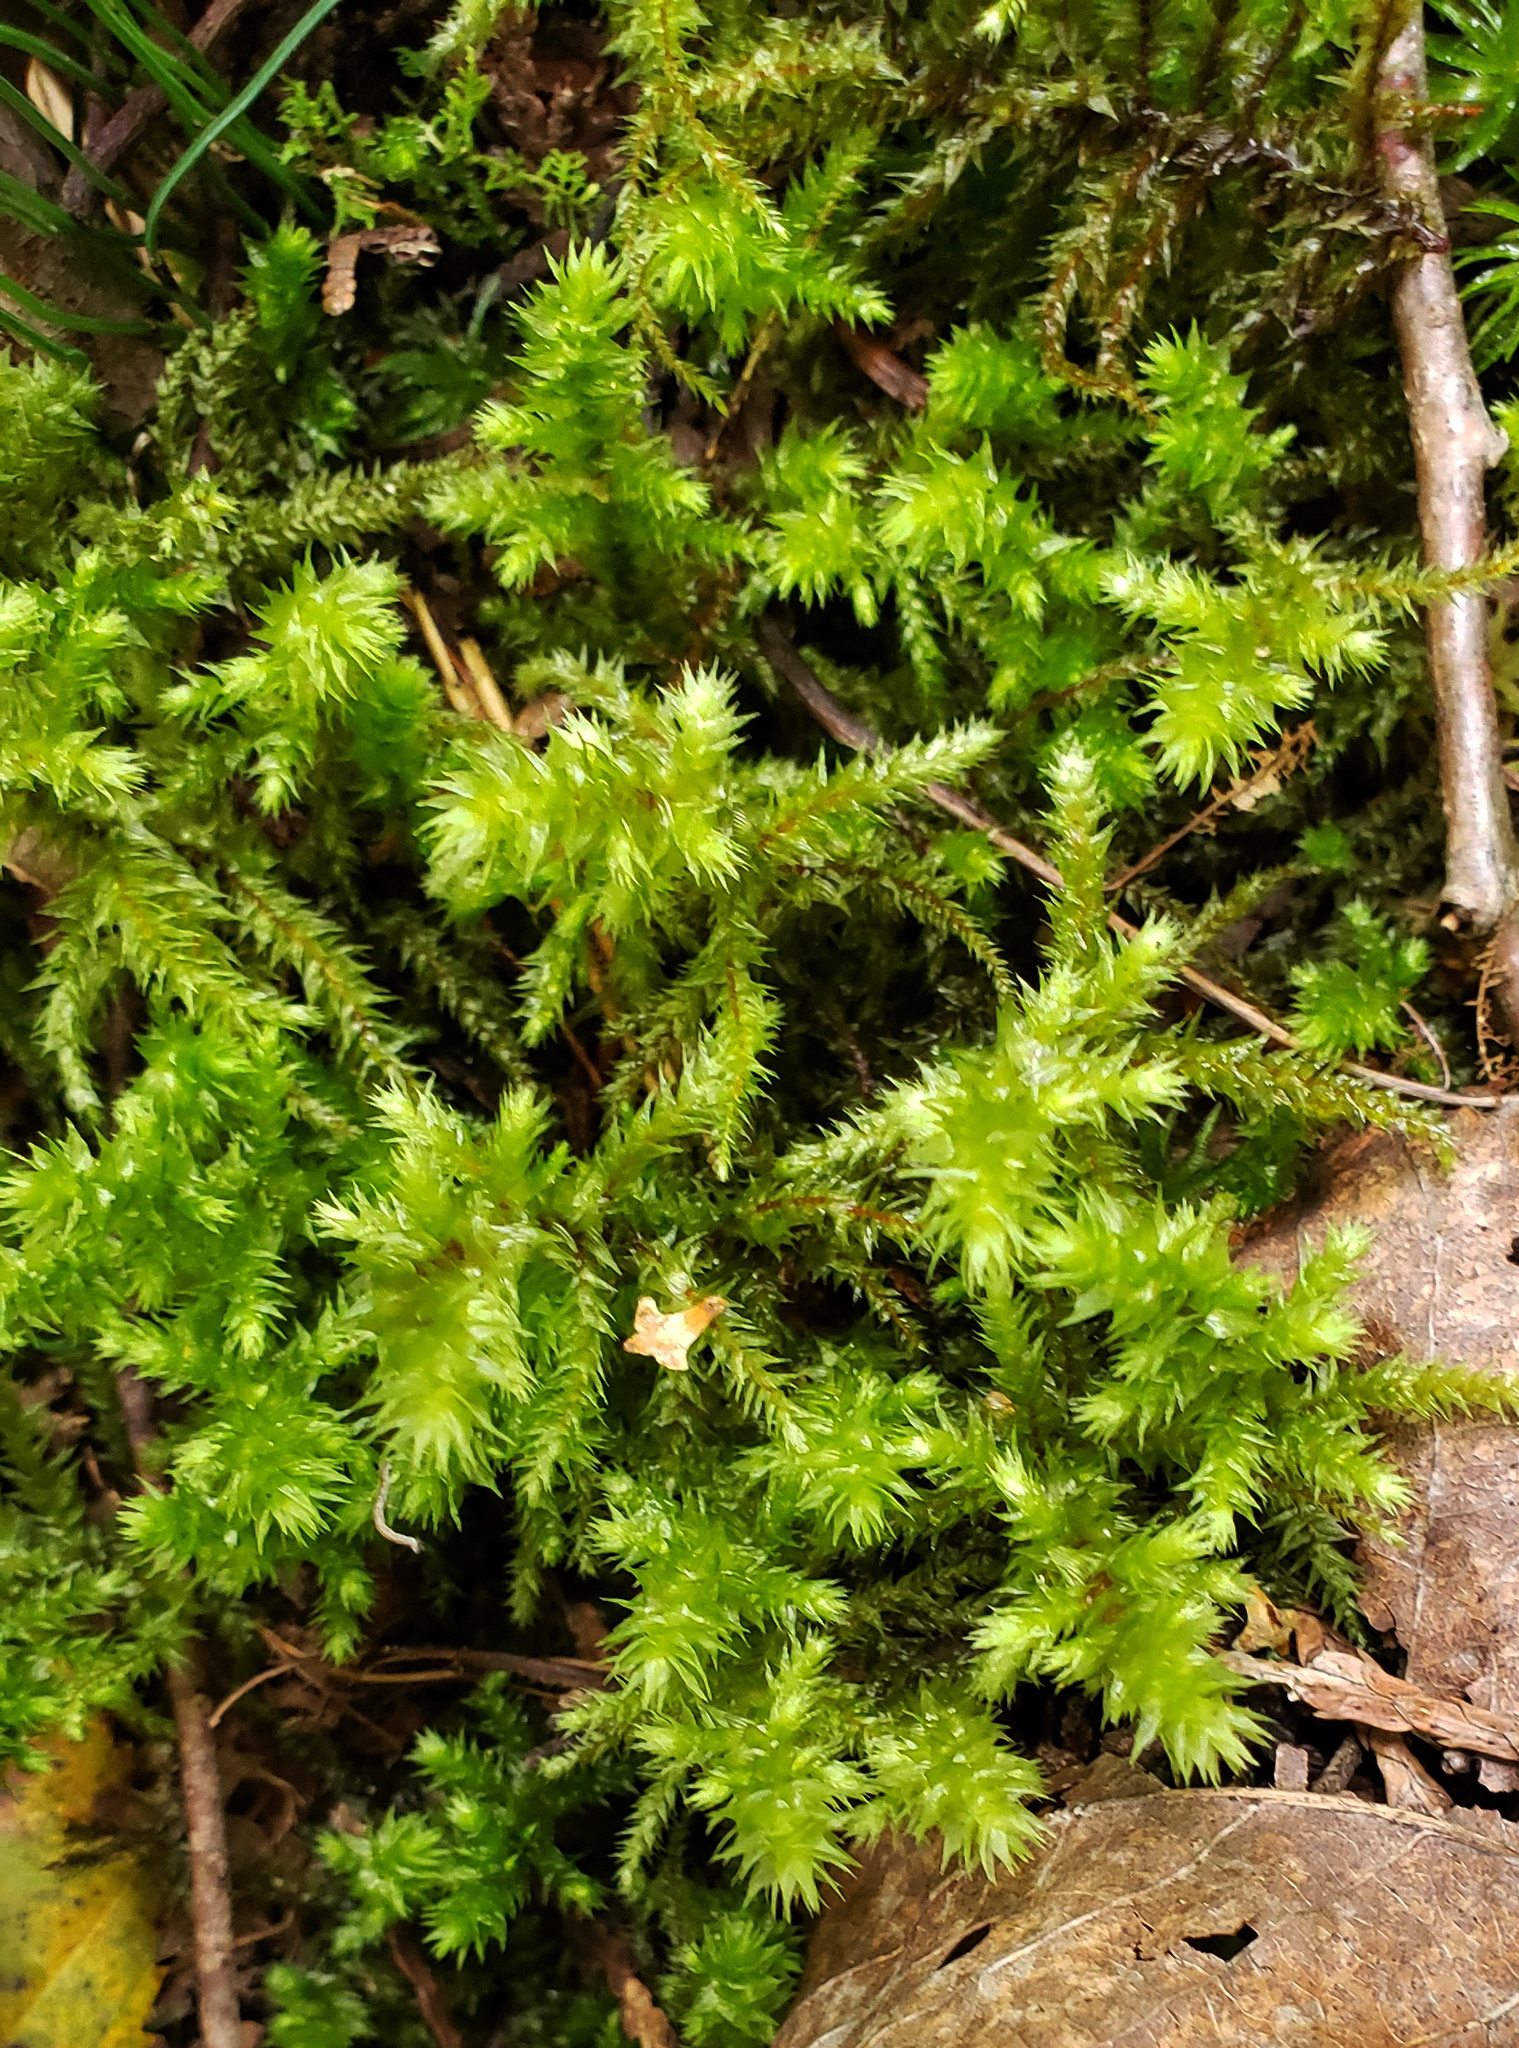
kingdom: Plantae
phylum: Bryophyta
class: Bryopsida
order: Hypnales
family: Hylocomiaceae
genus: Hylocomiadelphus
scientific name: Hylocomiadelphus triquetrus
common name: Rough goose neck moss
